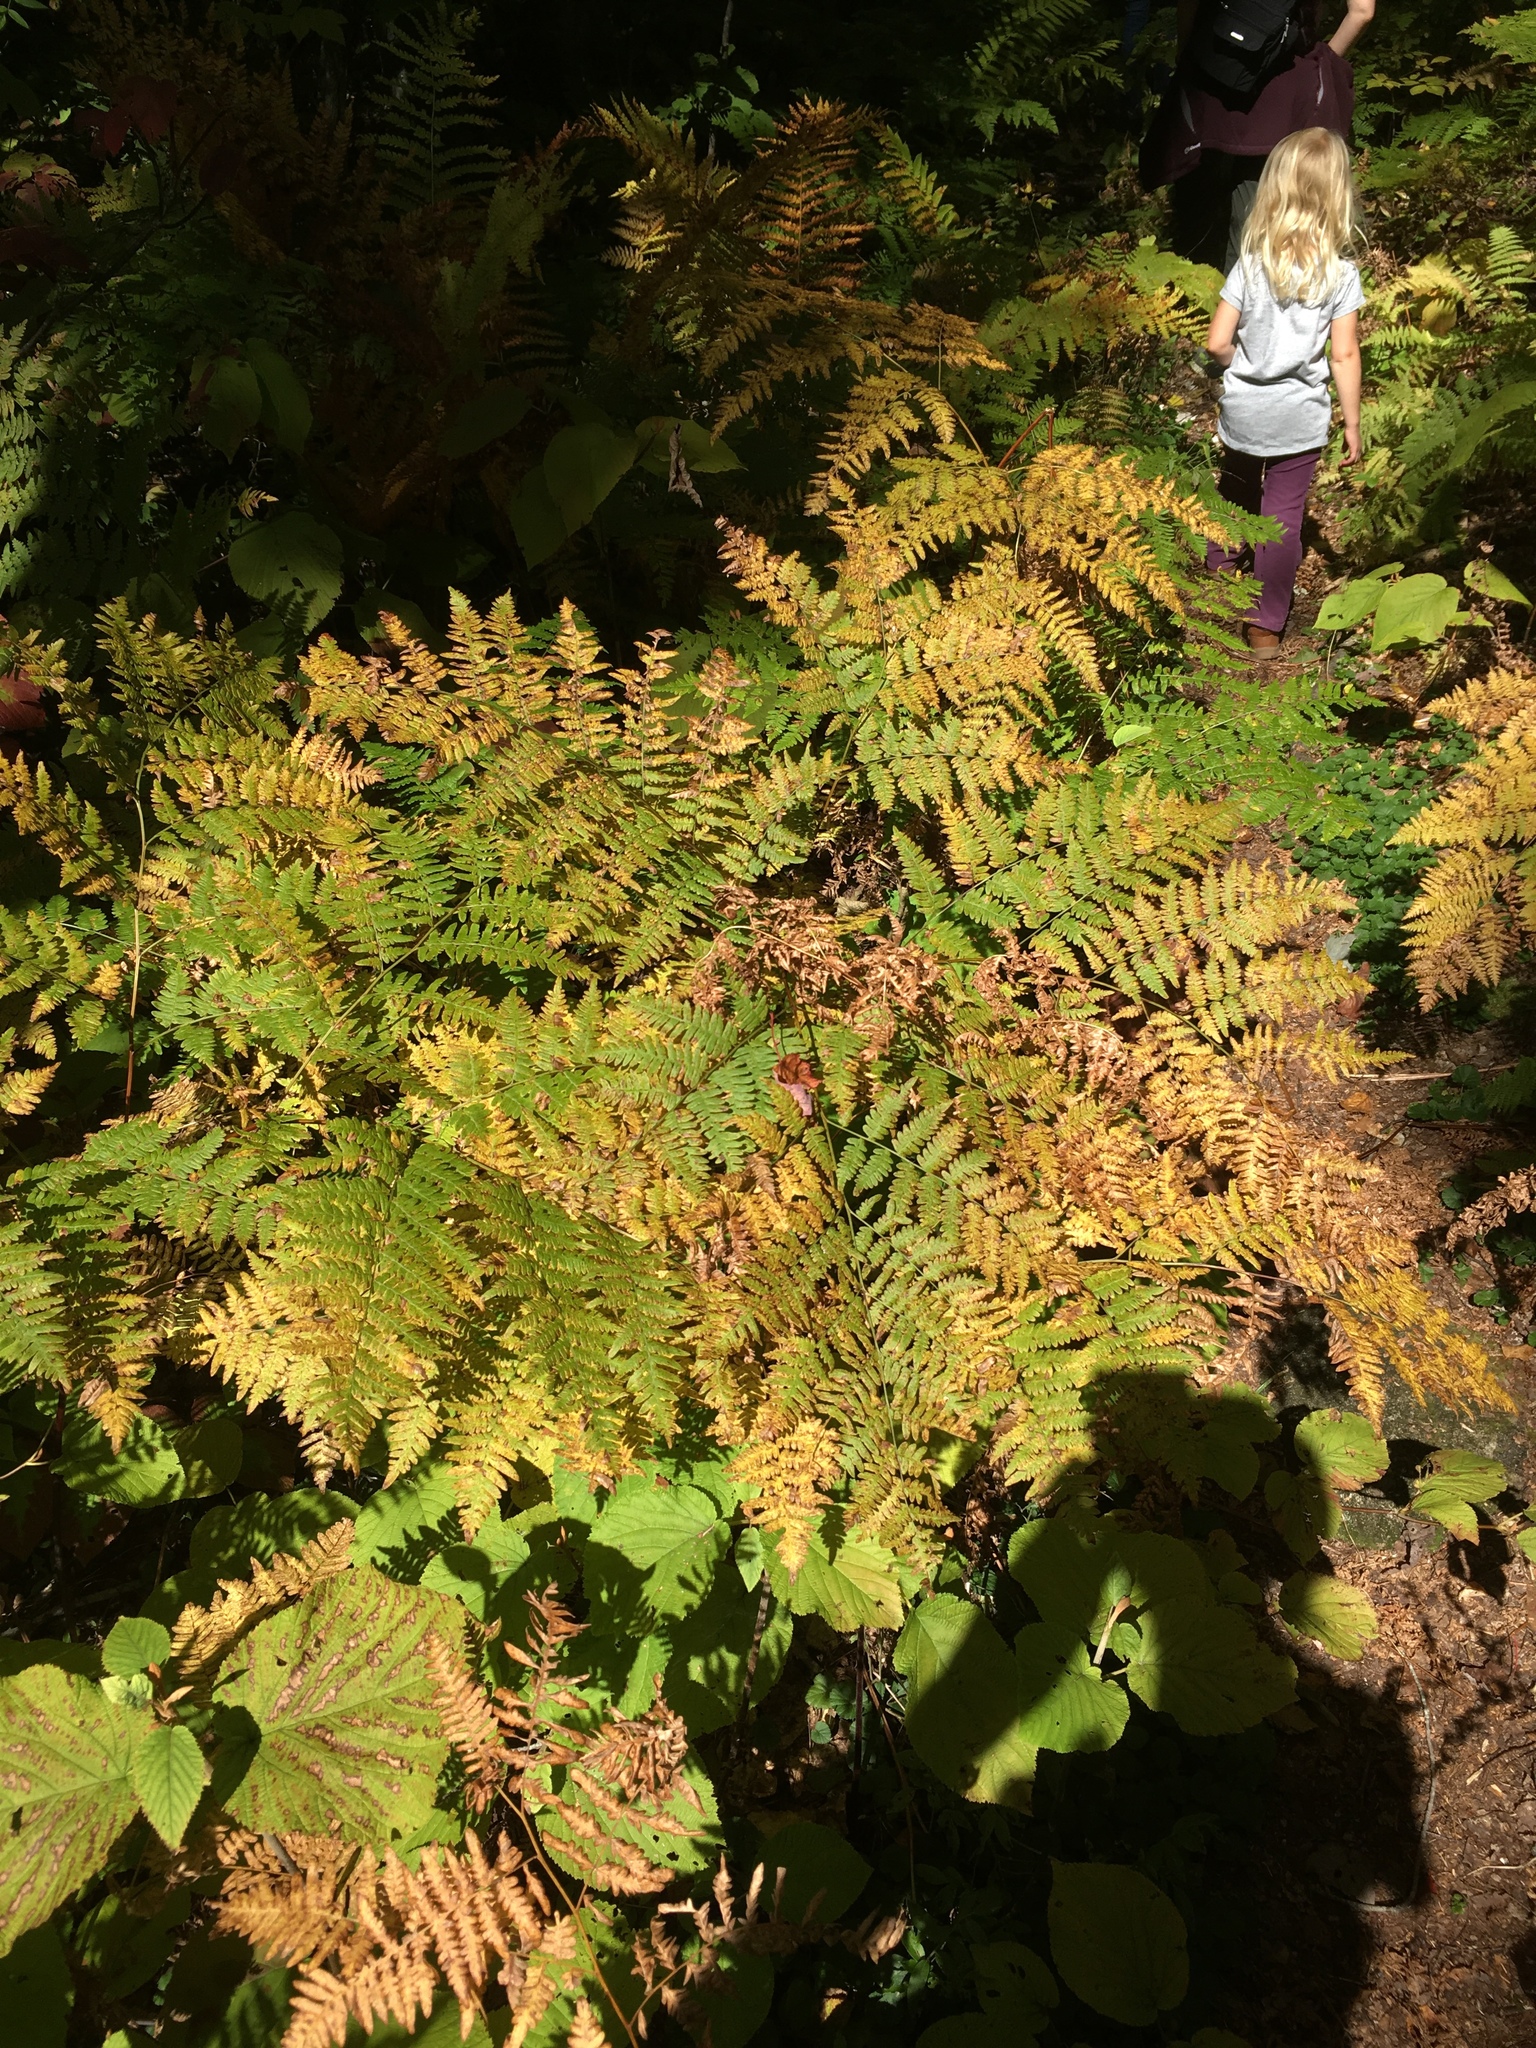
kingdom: Plantae
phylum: Tracheophyta
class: Polypodiopsida
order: Polypodiales
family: Dennstaedtiaceae
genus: Pteridium
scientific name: Pteridium aquilinum
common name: Bracken
